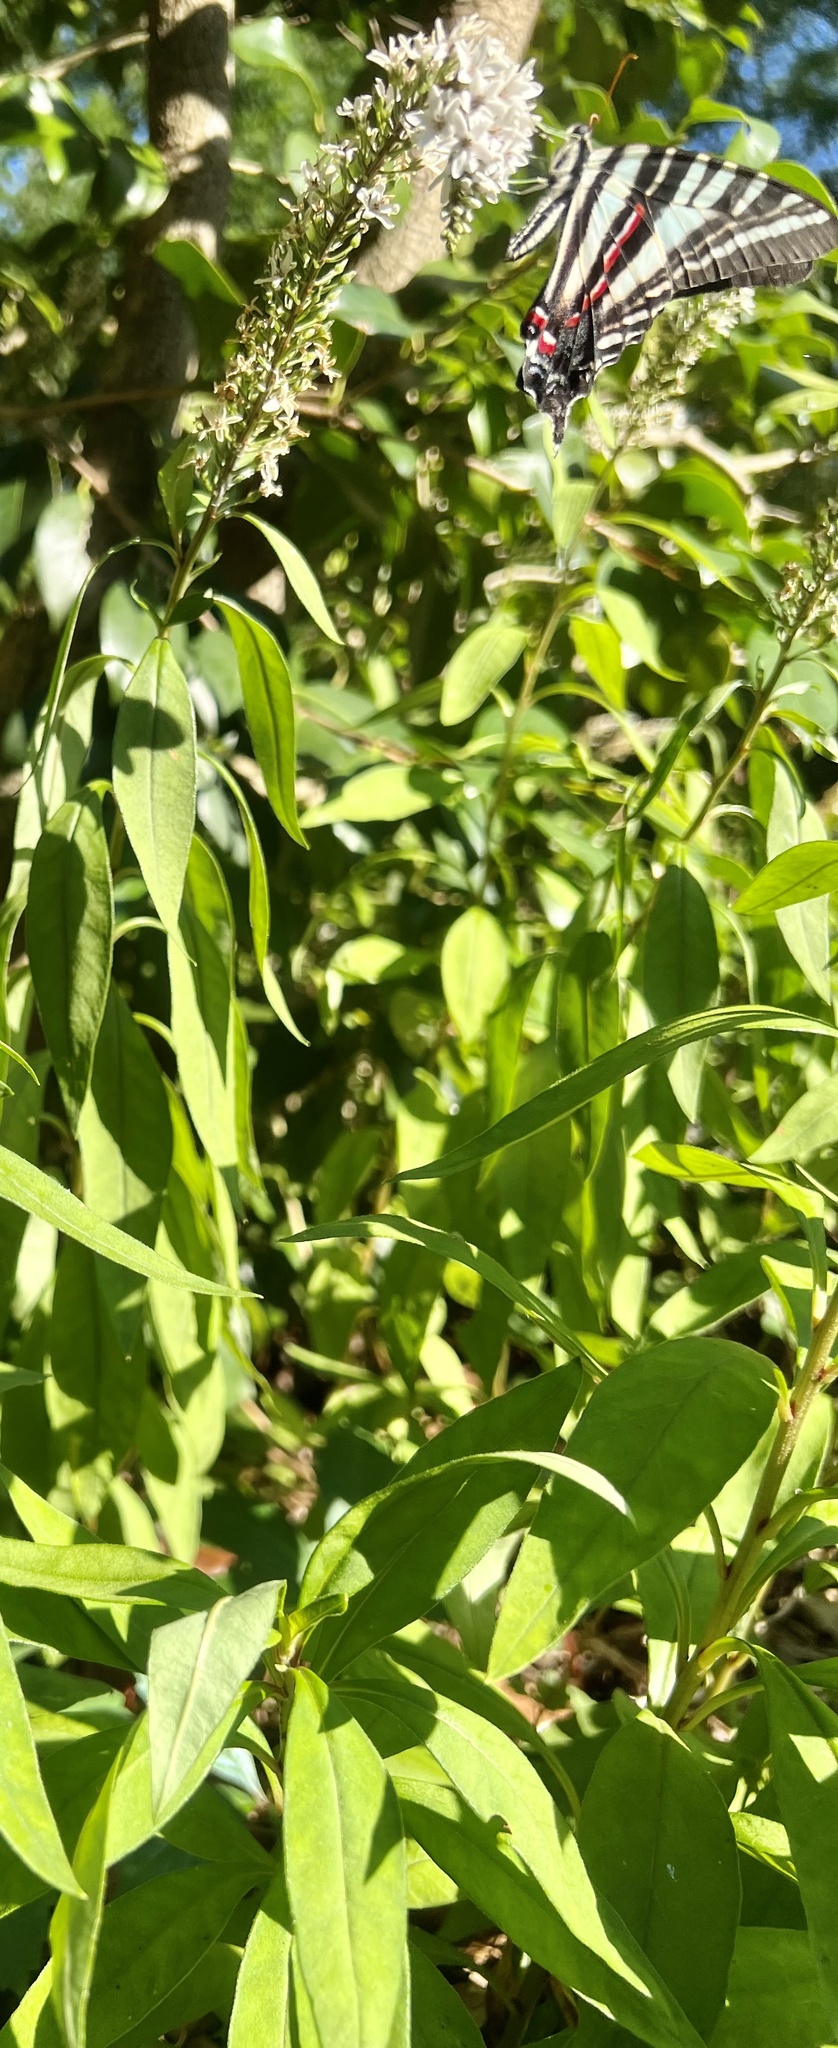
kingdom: Plantae
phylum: Tracheophyta
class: Magnoliopsida
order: Ericales
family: Primulaceae
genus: Lysimachia
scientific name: Lysimachia clethroides
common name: Gooseneck loosestrife
